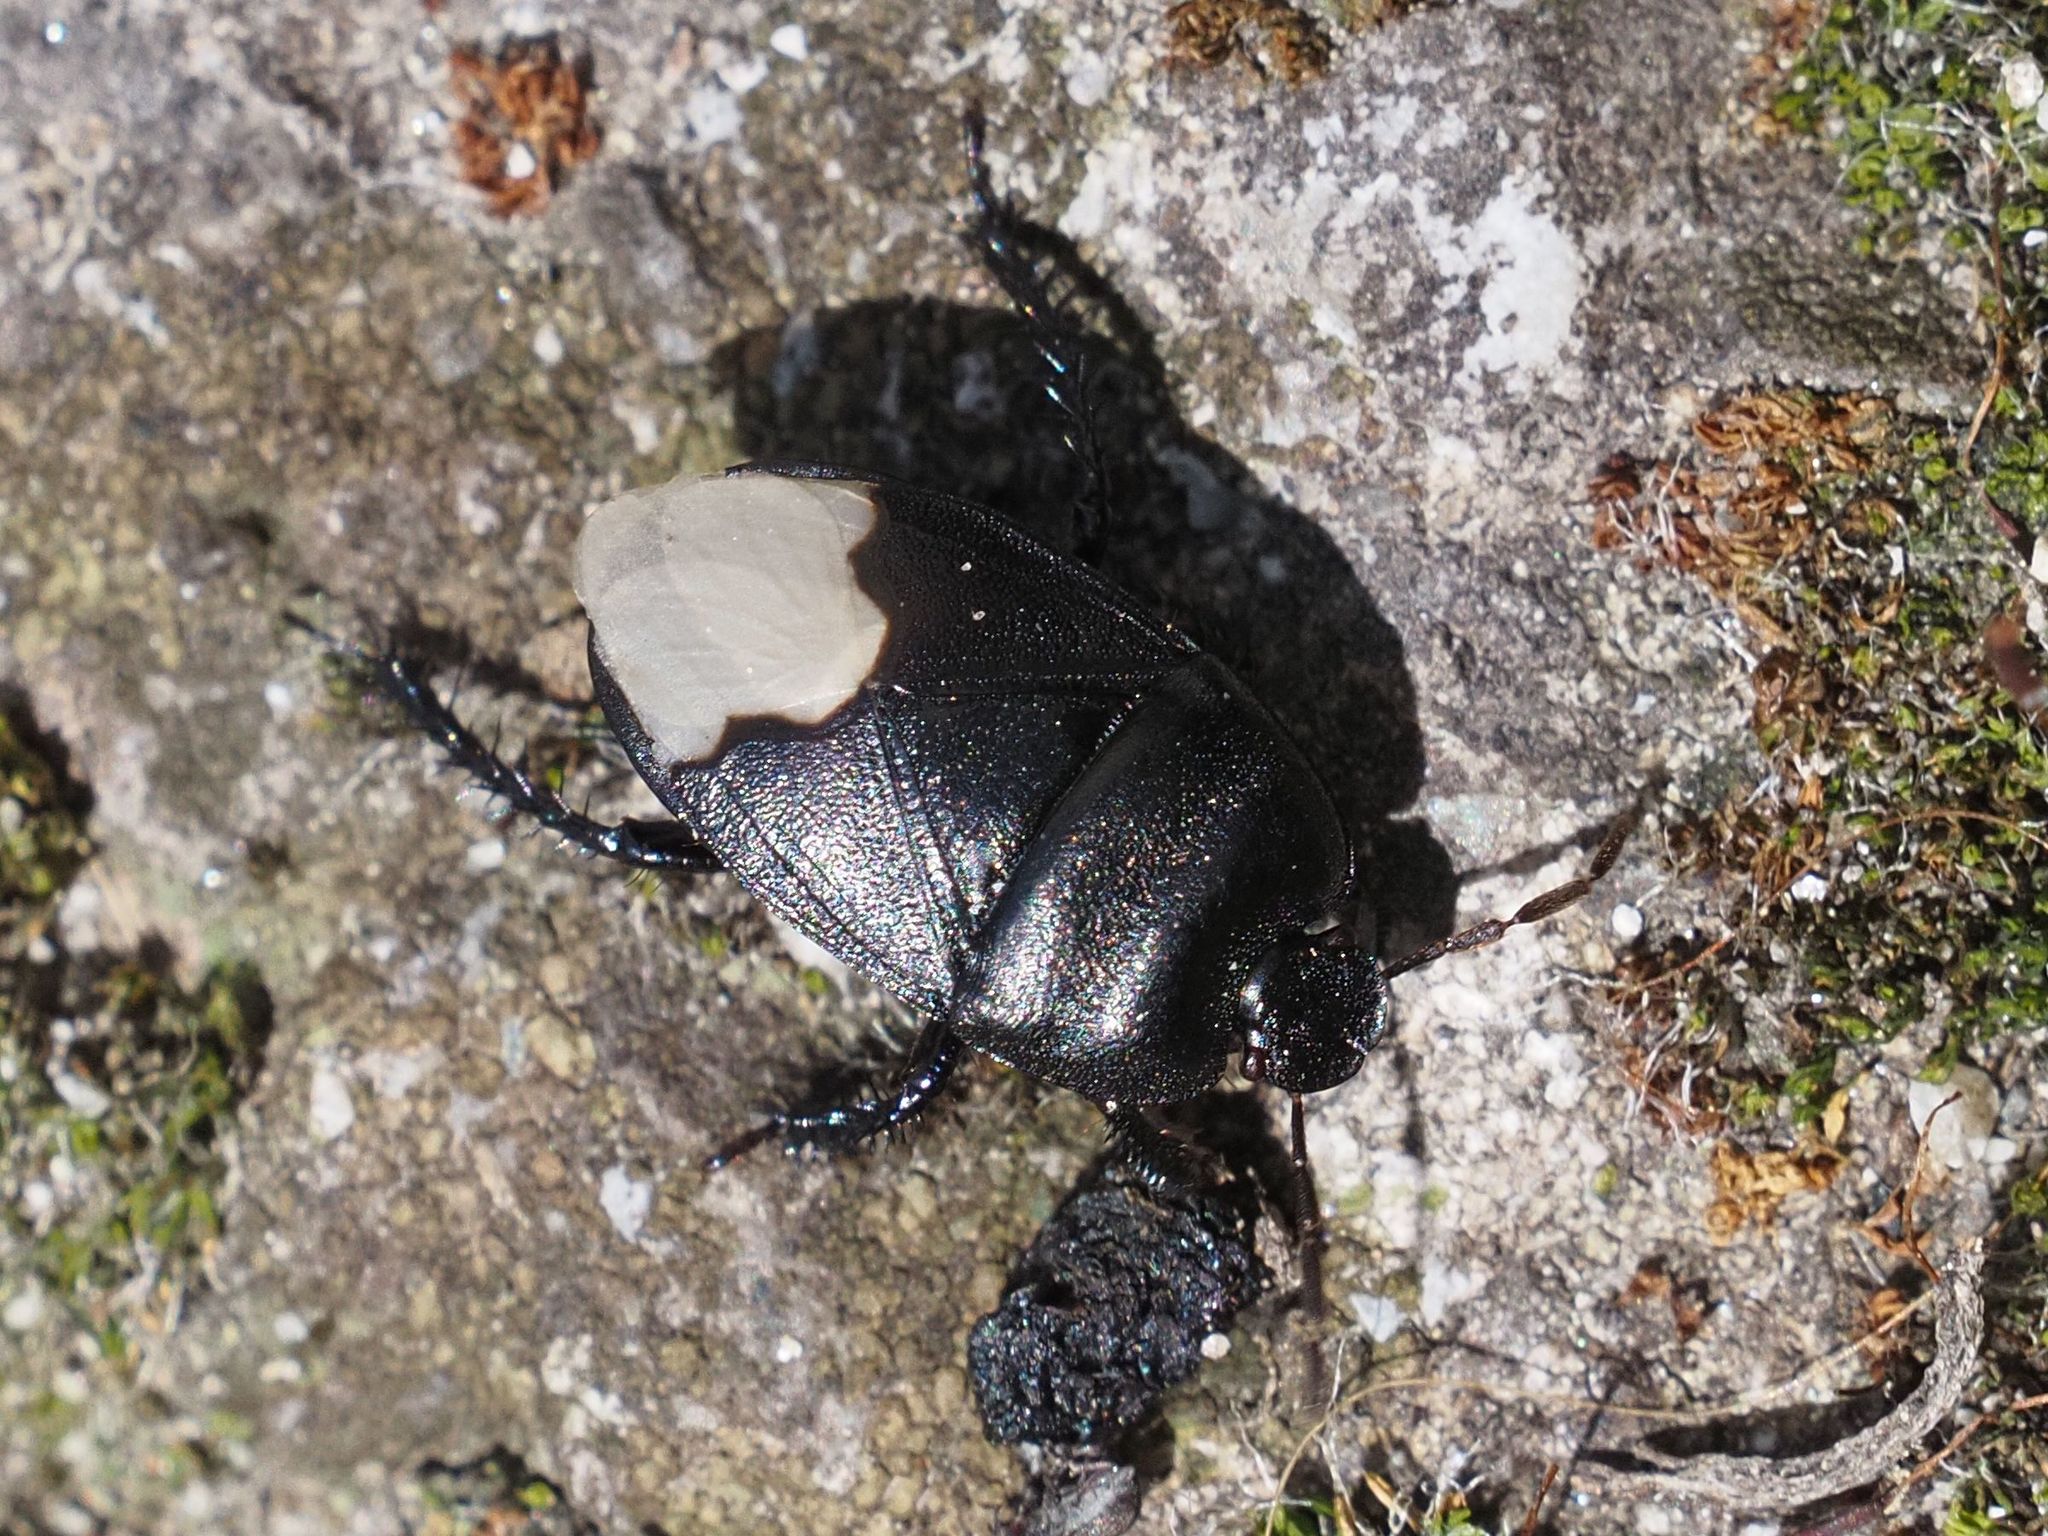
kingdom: Animalia
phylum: Arthropoda
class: Insecta
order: Hemiptera
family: Cydnidae
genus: Cydnus
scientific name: Cydnus aterrimus
